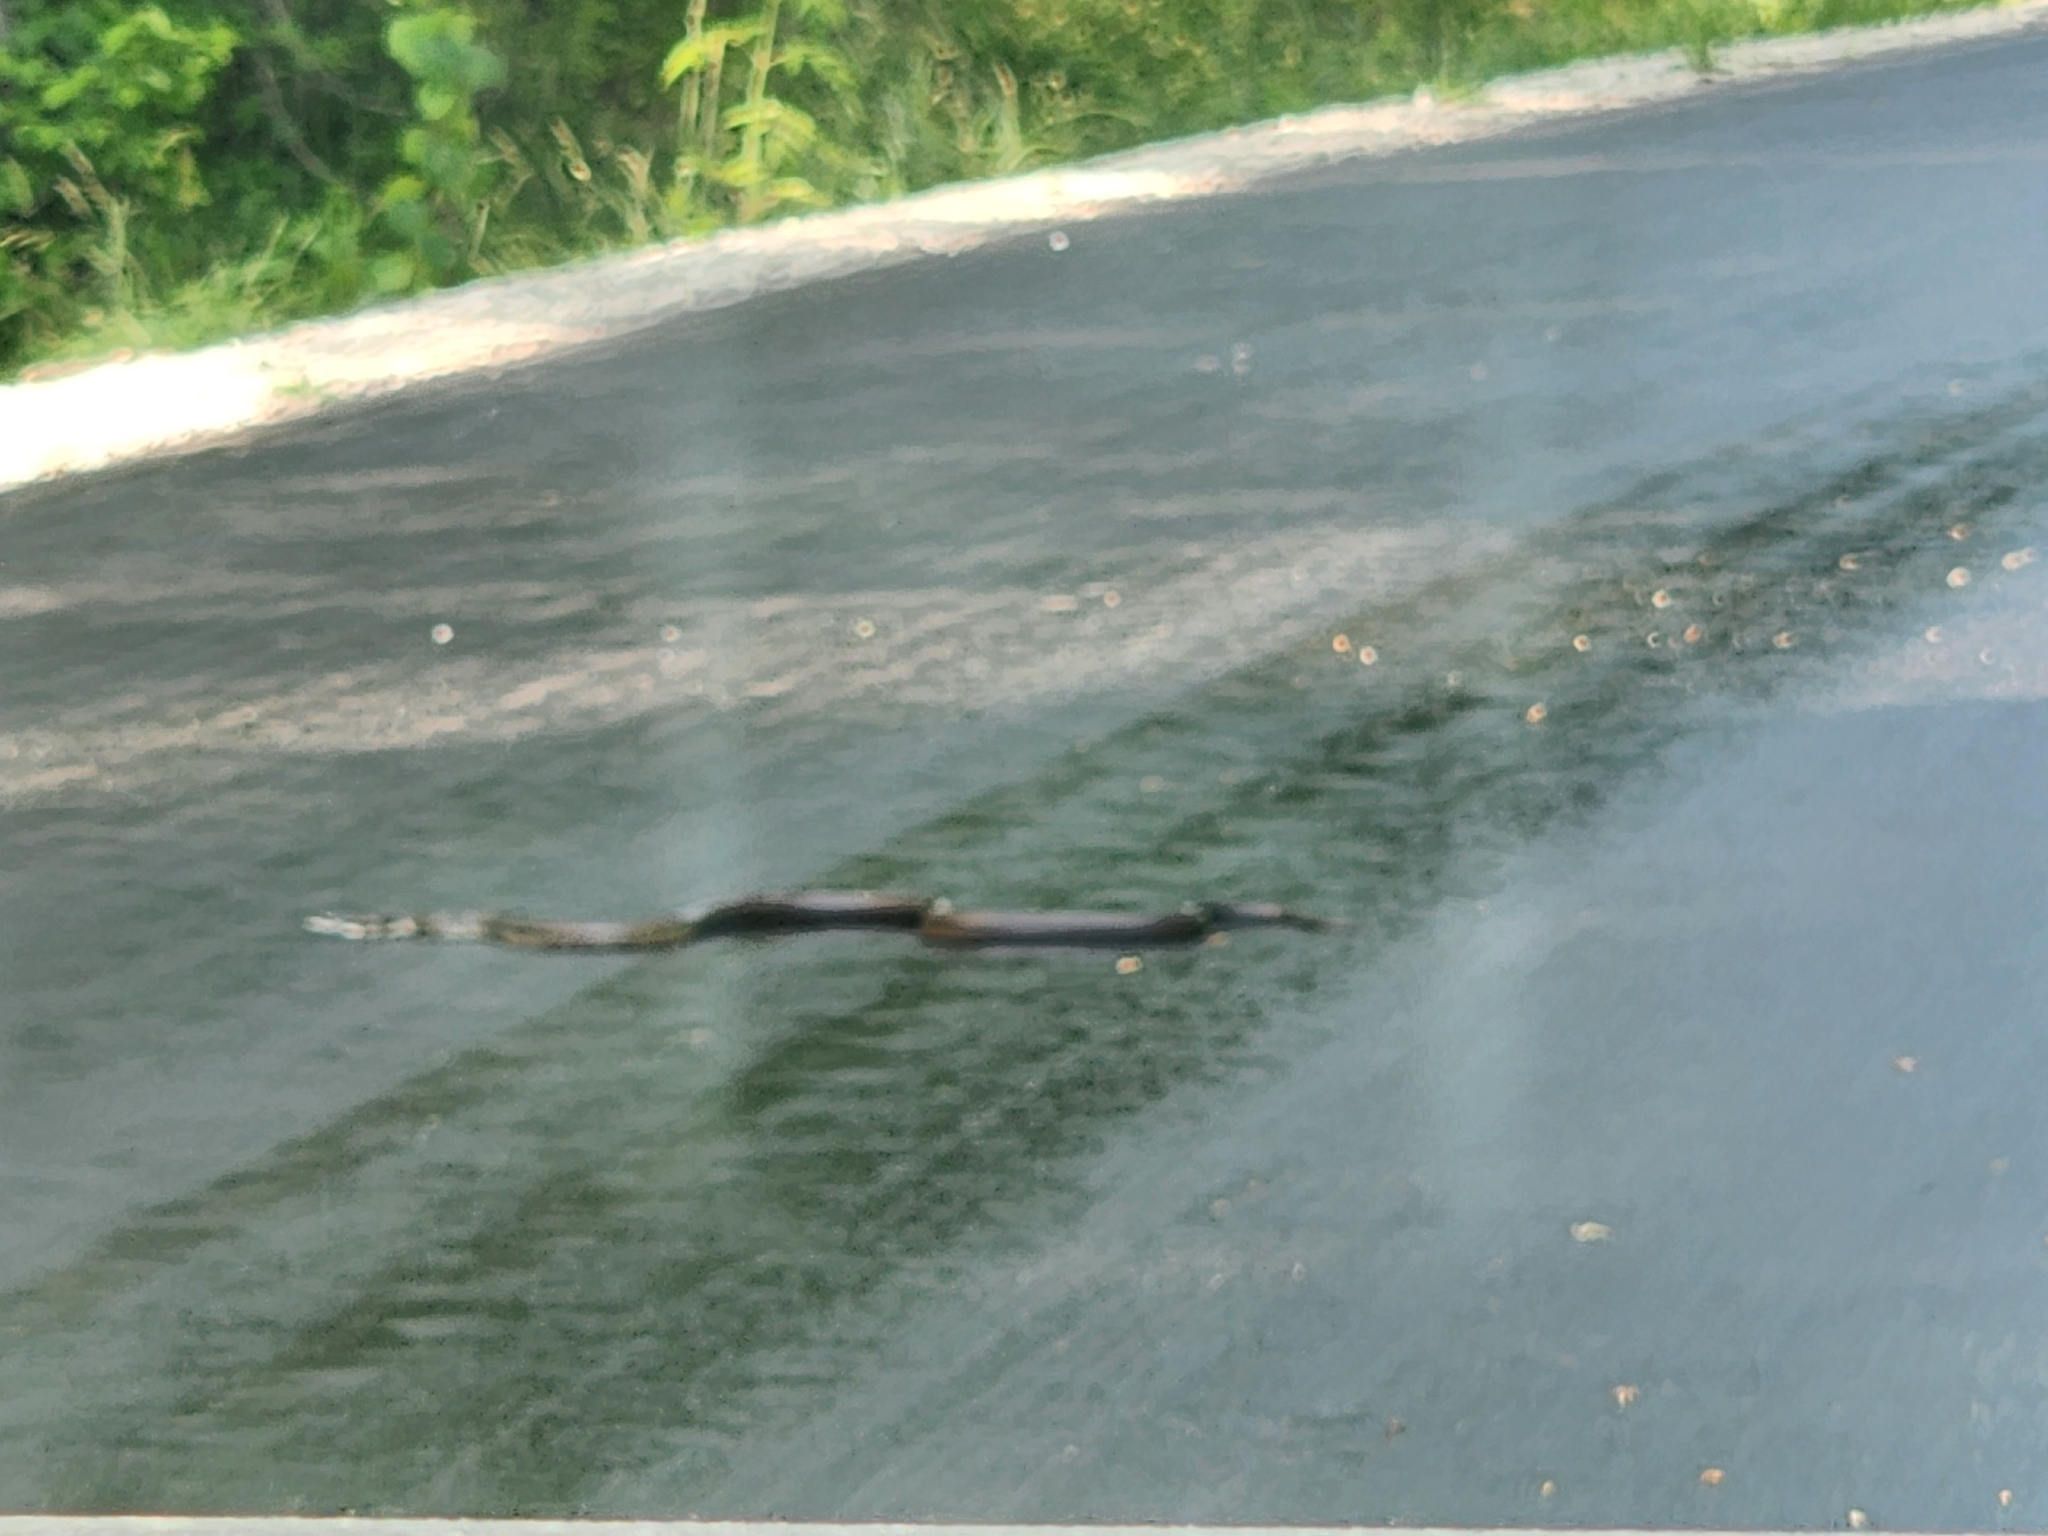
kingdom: Animalia
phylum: Chordata
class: Squamata
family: Colubridae
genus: Pantherophis
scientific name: Pantherophis spiloides
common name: Gray rat snake
